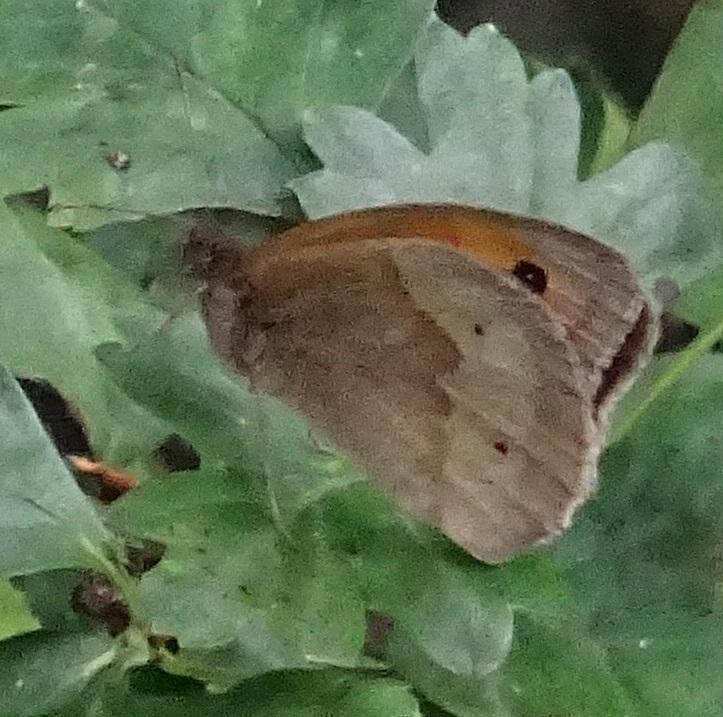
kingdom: Animalia
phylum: Arthropoda
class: Insecta
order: Lepidoptera
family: Nymphalidae
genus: Maniola
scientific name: Maniola jurtina
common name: Meadow brown
